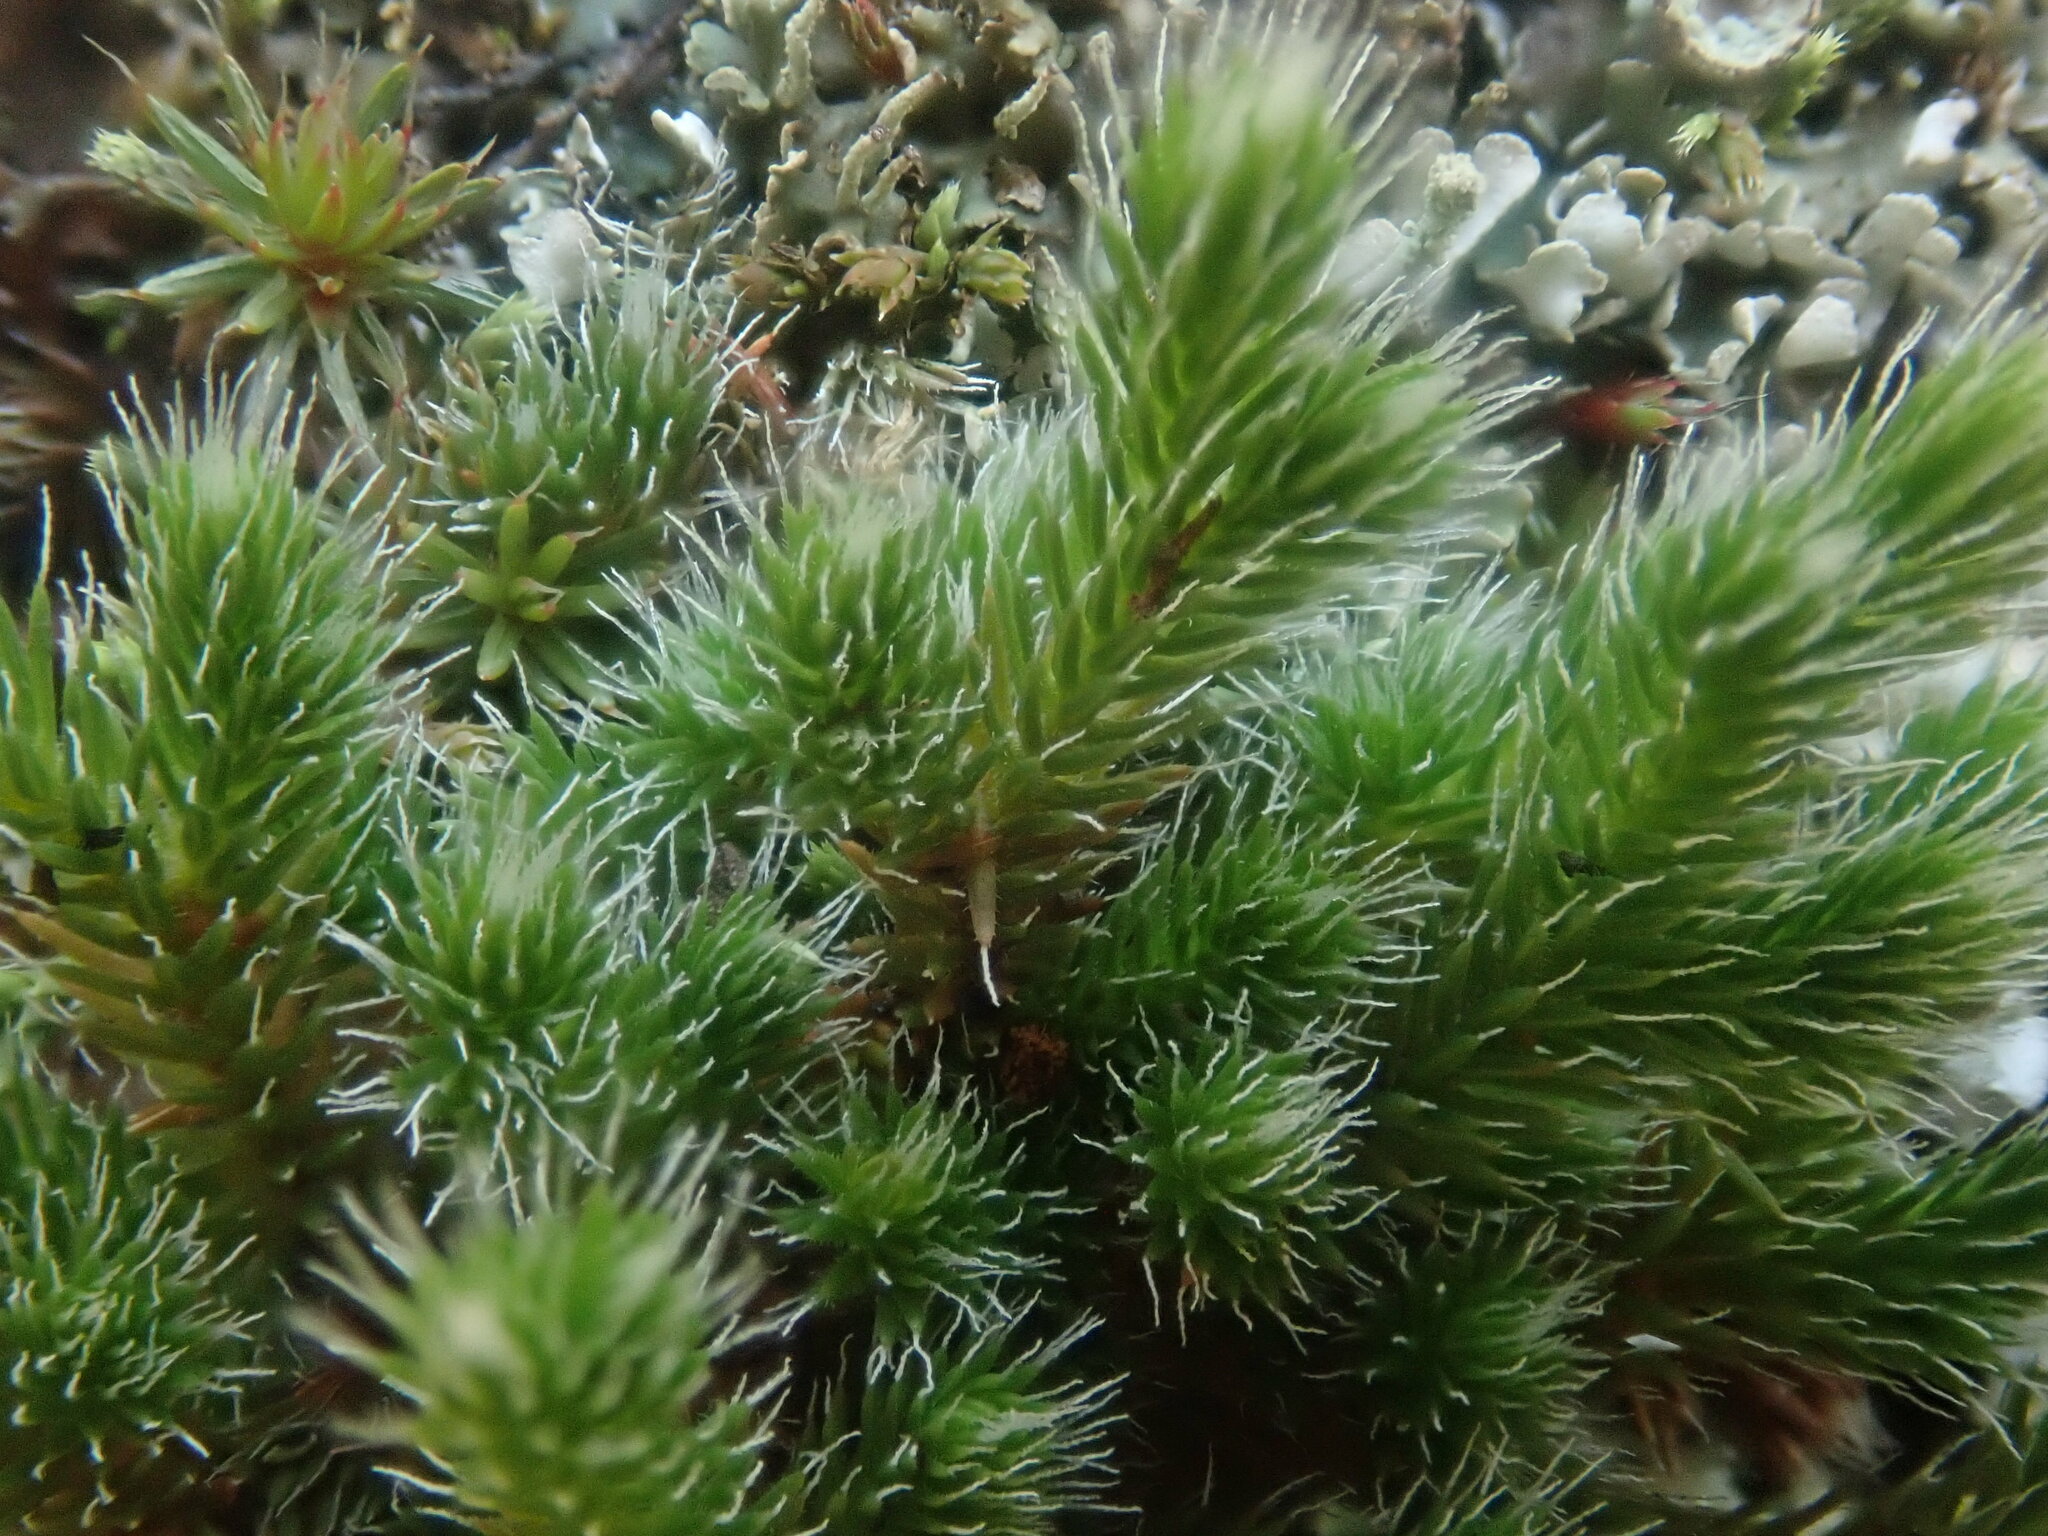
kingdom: Plantae
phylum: Tracheophyta
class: Lycopodiopsida
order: Selaginellales
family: Selaginellaceae
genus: Selaginella
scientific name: Selaginella rupestris
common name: Dwarf spikemoss
